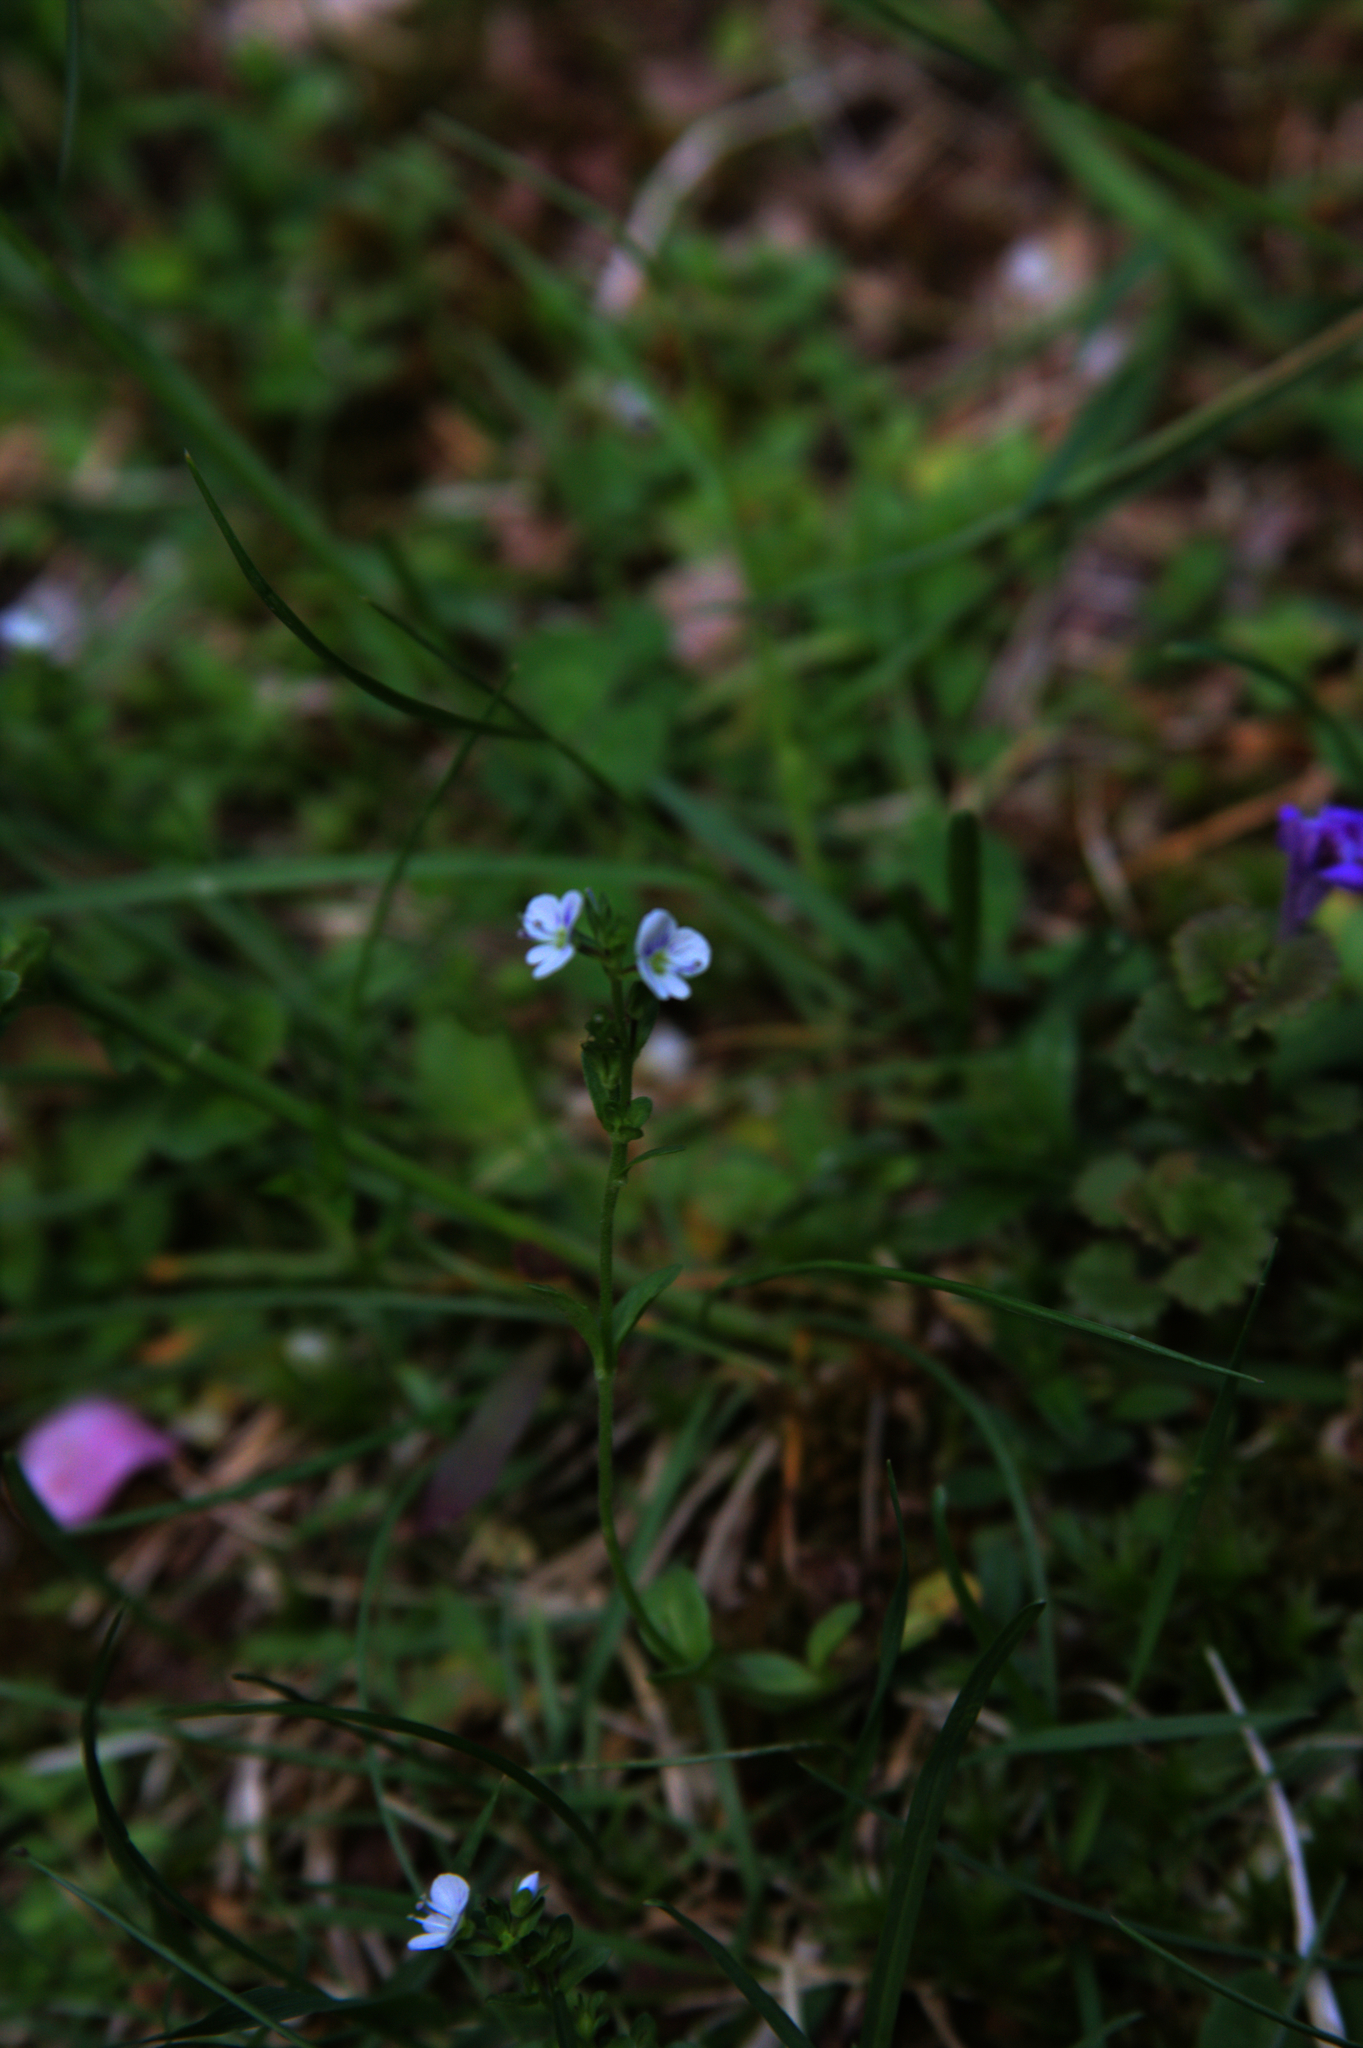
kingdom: Plantae
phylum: Tracheophyta
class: Magnoliopsida
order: Lamiales
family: Plantaginaceae
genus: Veronica
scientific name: Veronica serpyllifolia
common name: Thyme-leaved speedwell
